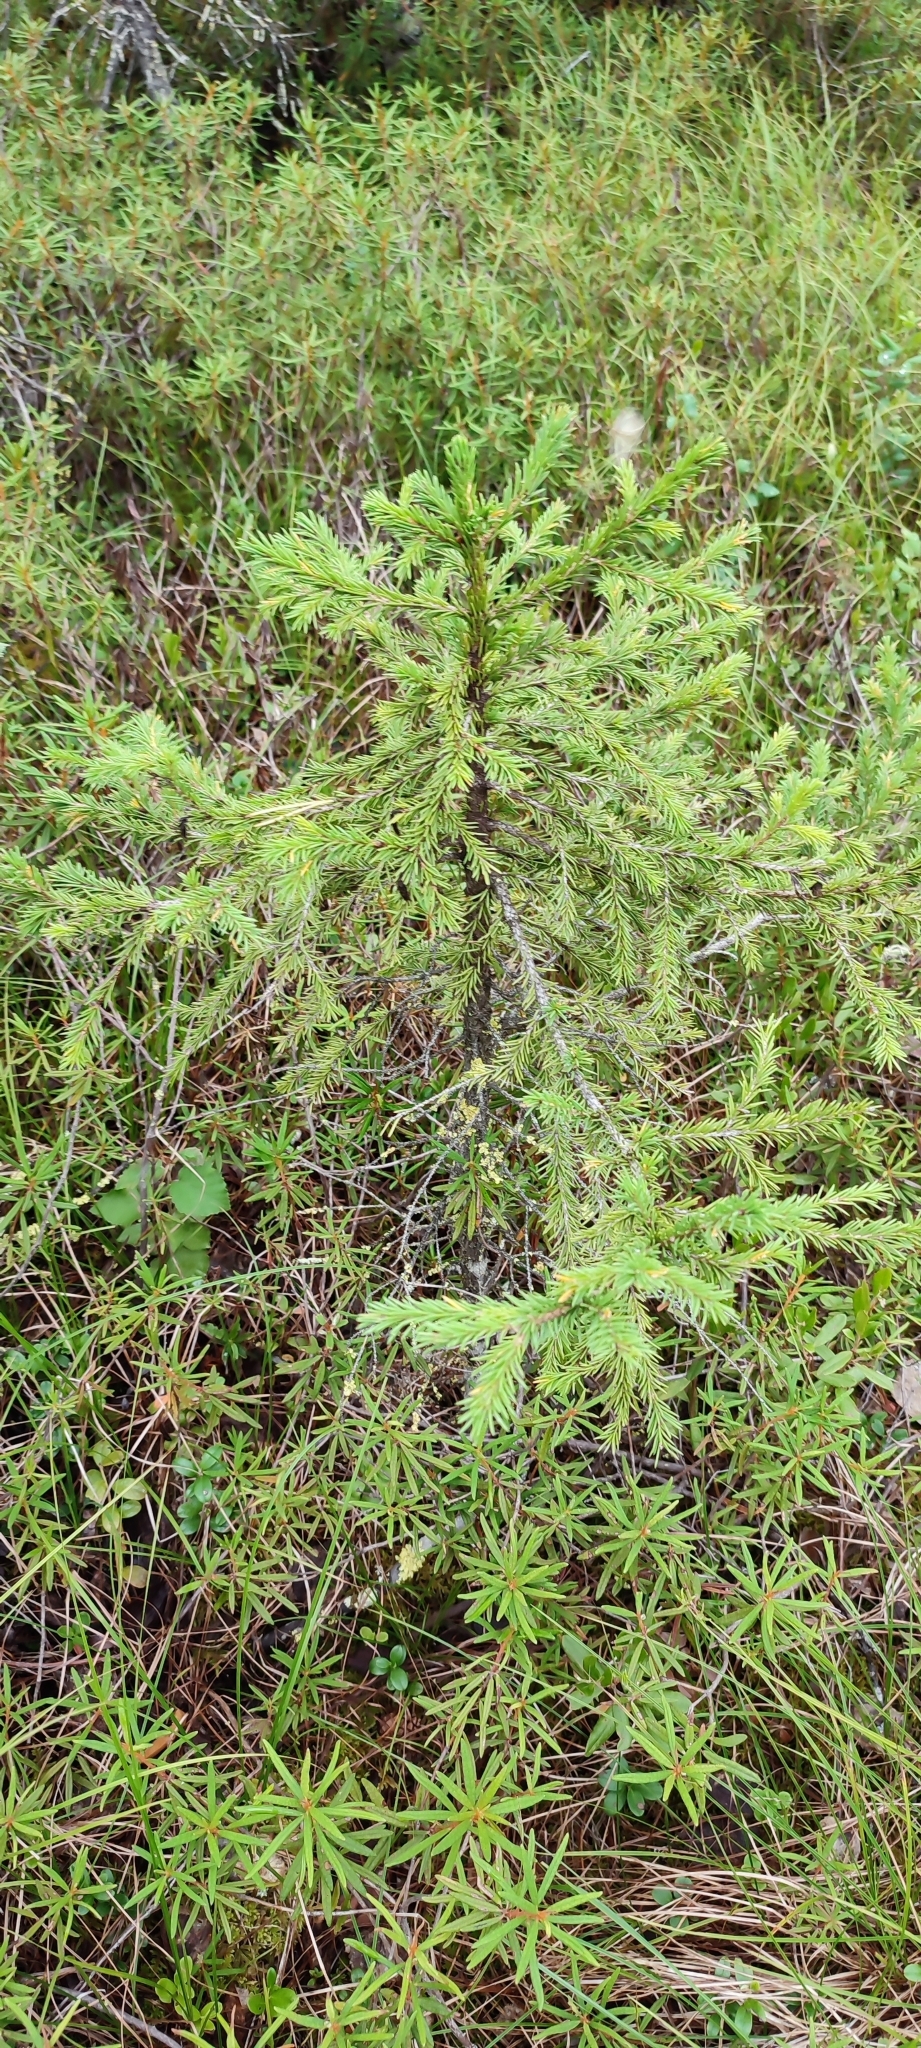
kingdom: Plantae
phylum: Tracheophyta
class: Pinopsida
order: Pinales
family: Pinaceae
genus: Picea
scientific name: Picea obovata
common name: Siberian spruce
